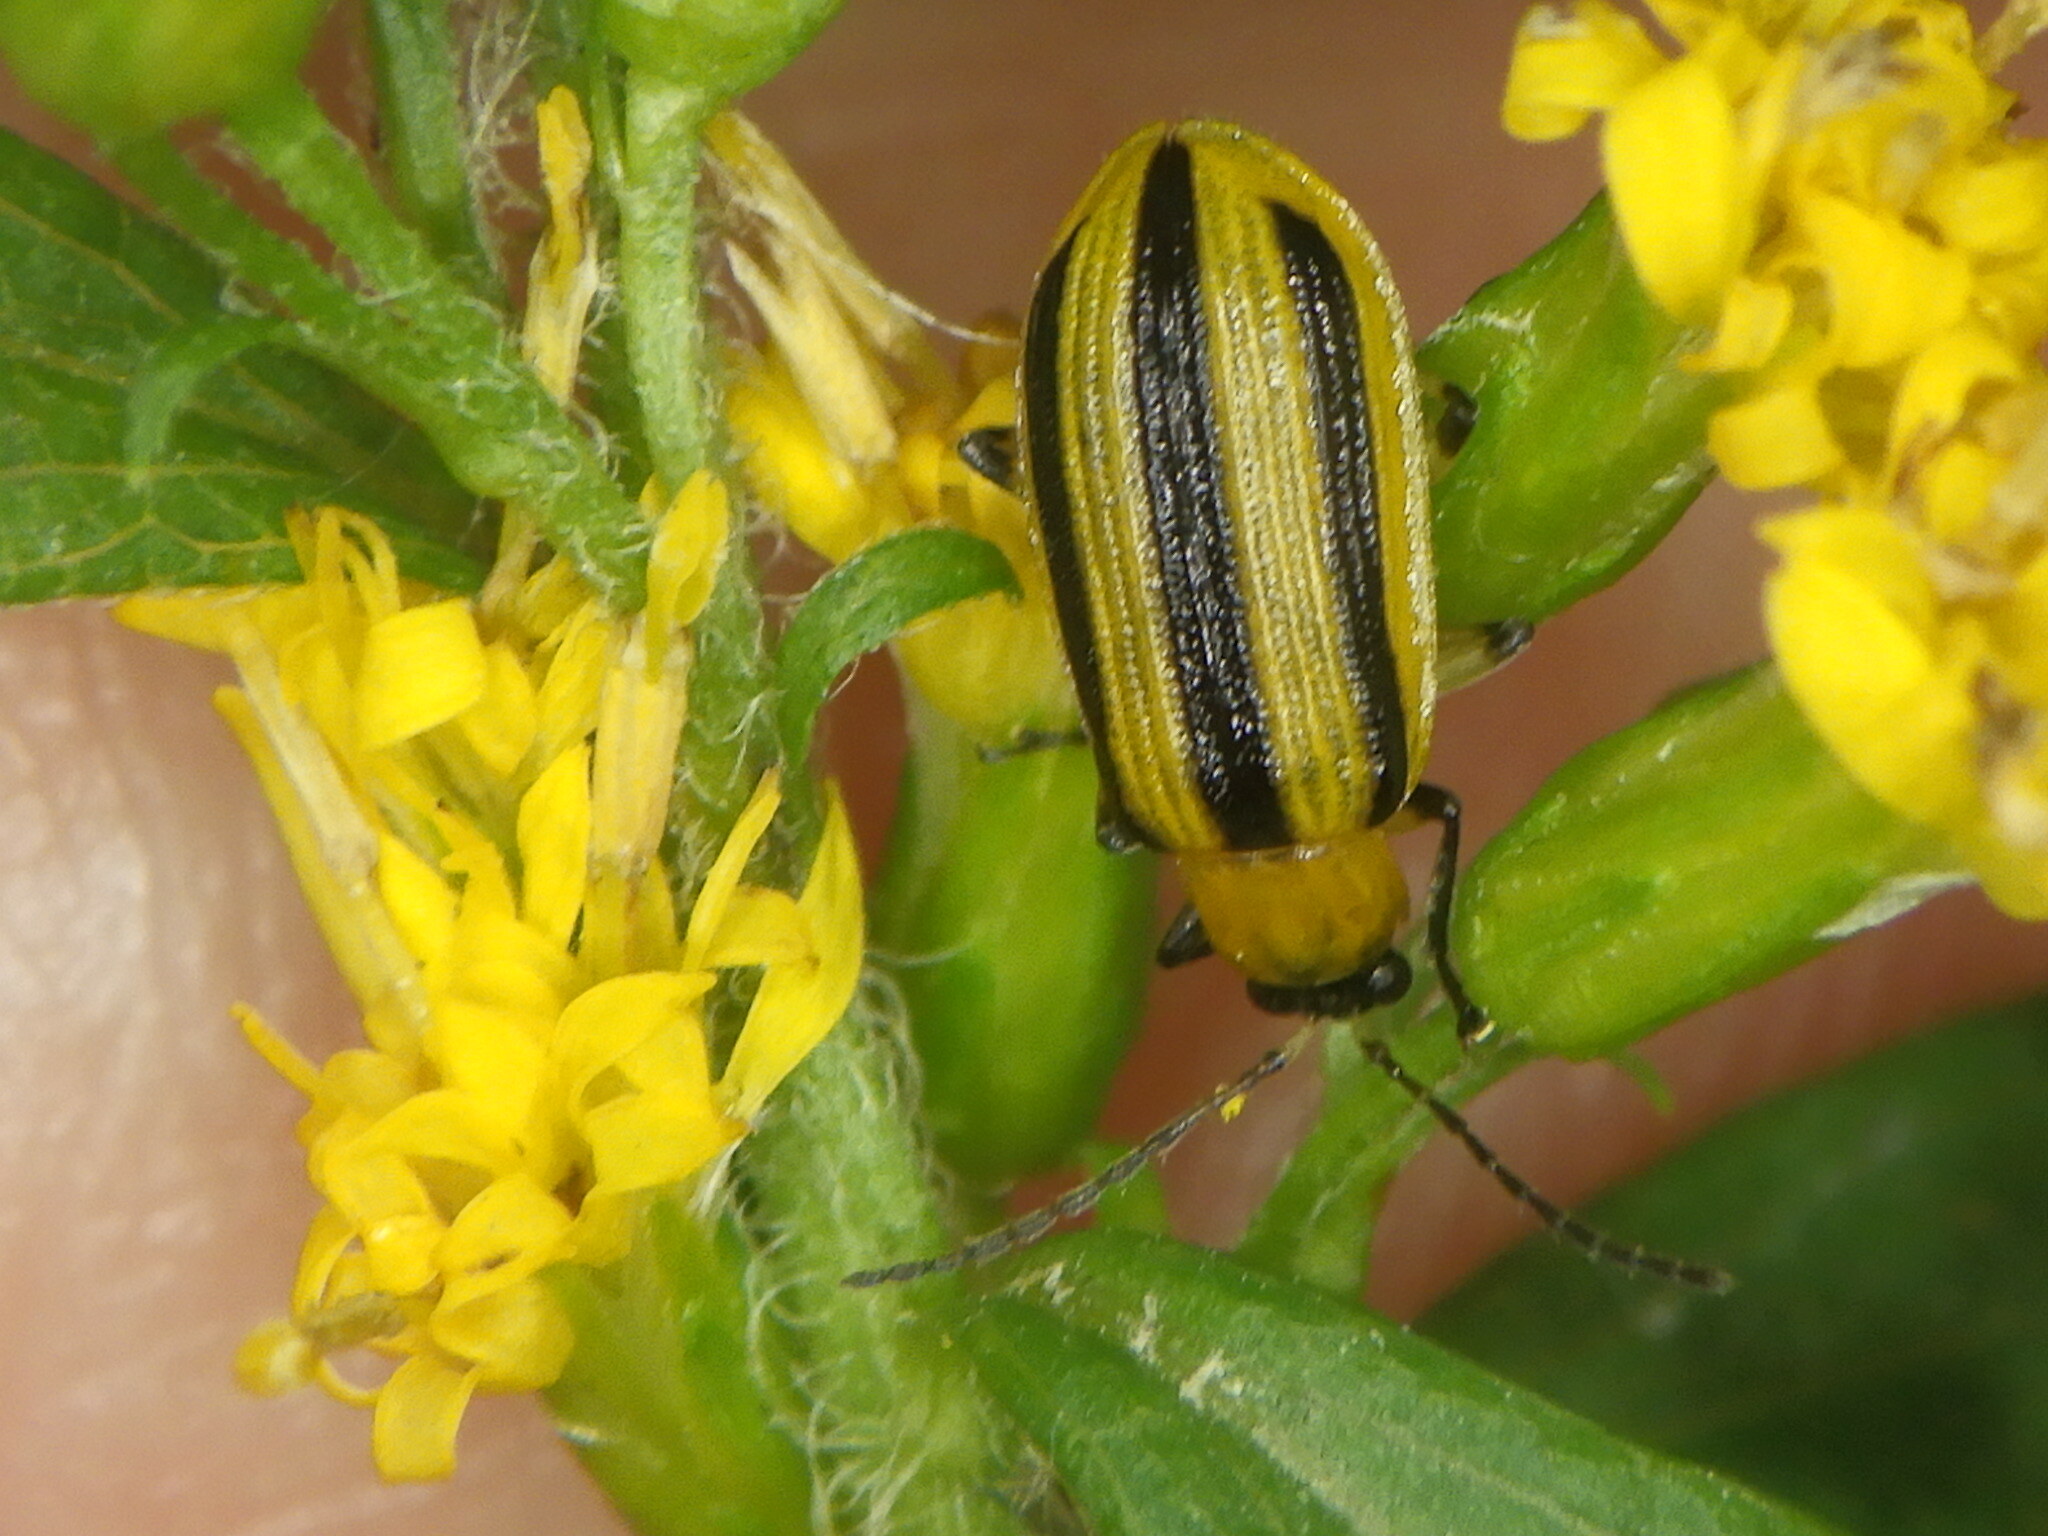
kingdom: Animalia
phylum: Arthropoda
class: Insecta
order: Coleoptera
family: Chrysomelidae
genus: Acalymma
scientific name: Acalymma vittatum
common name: Striped cucumber beetle
